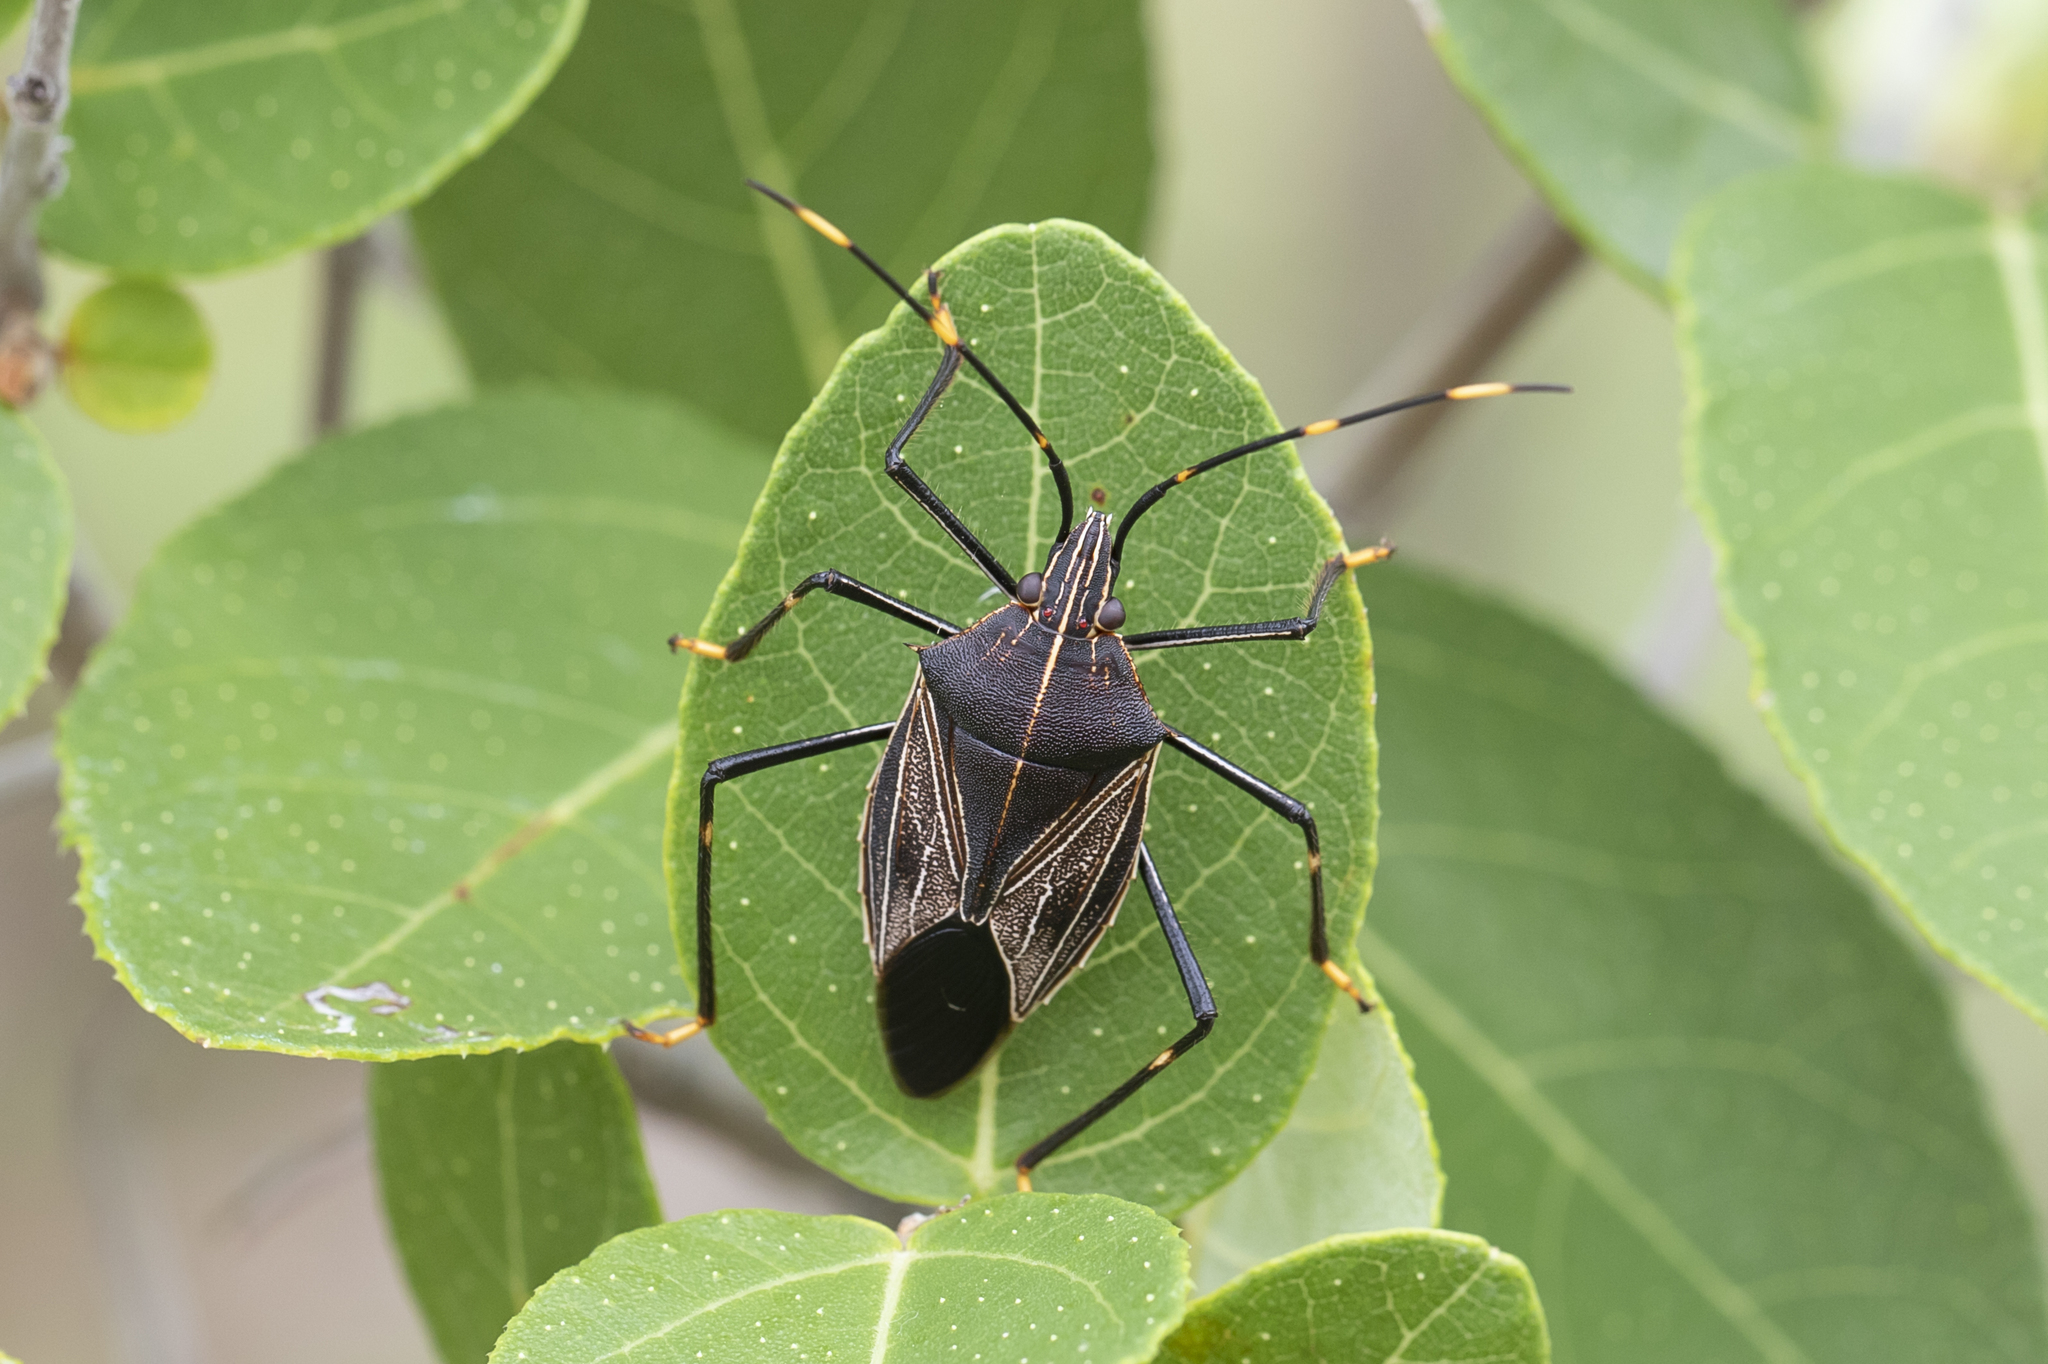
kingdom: Animalia
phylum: Arthropoda
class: Insecta
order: Hemiptera
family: Pentatomidae
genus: Poecilometis
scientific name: Poecilometis
